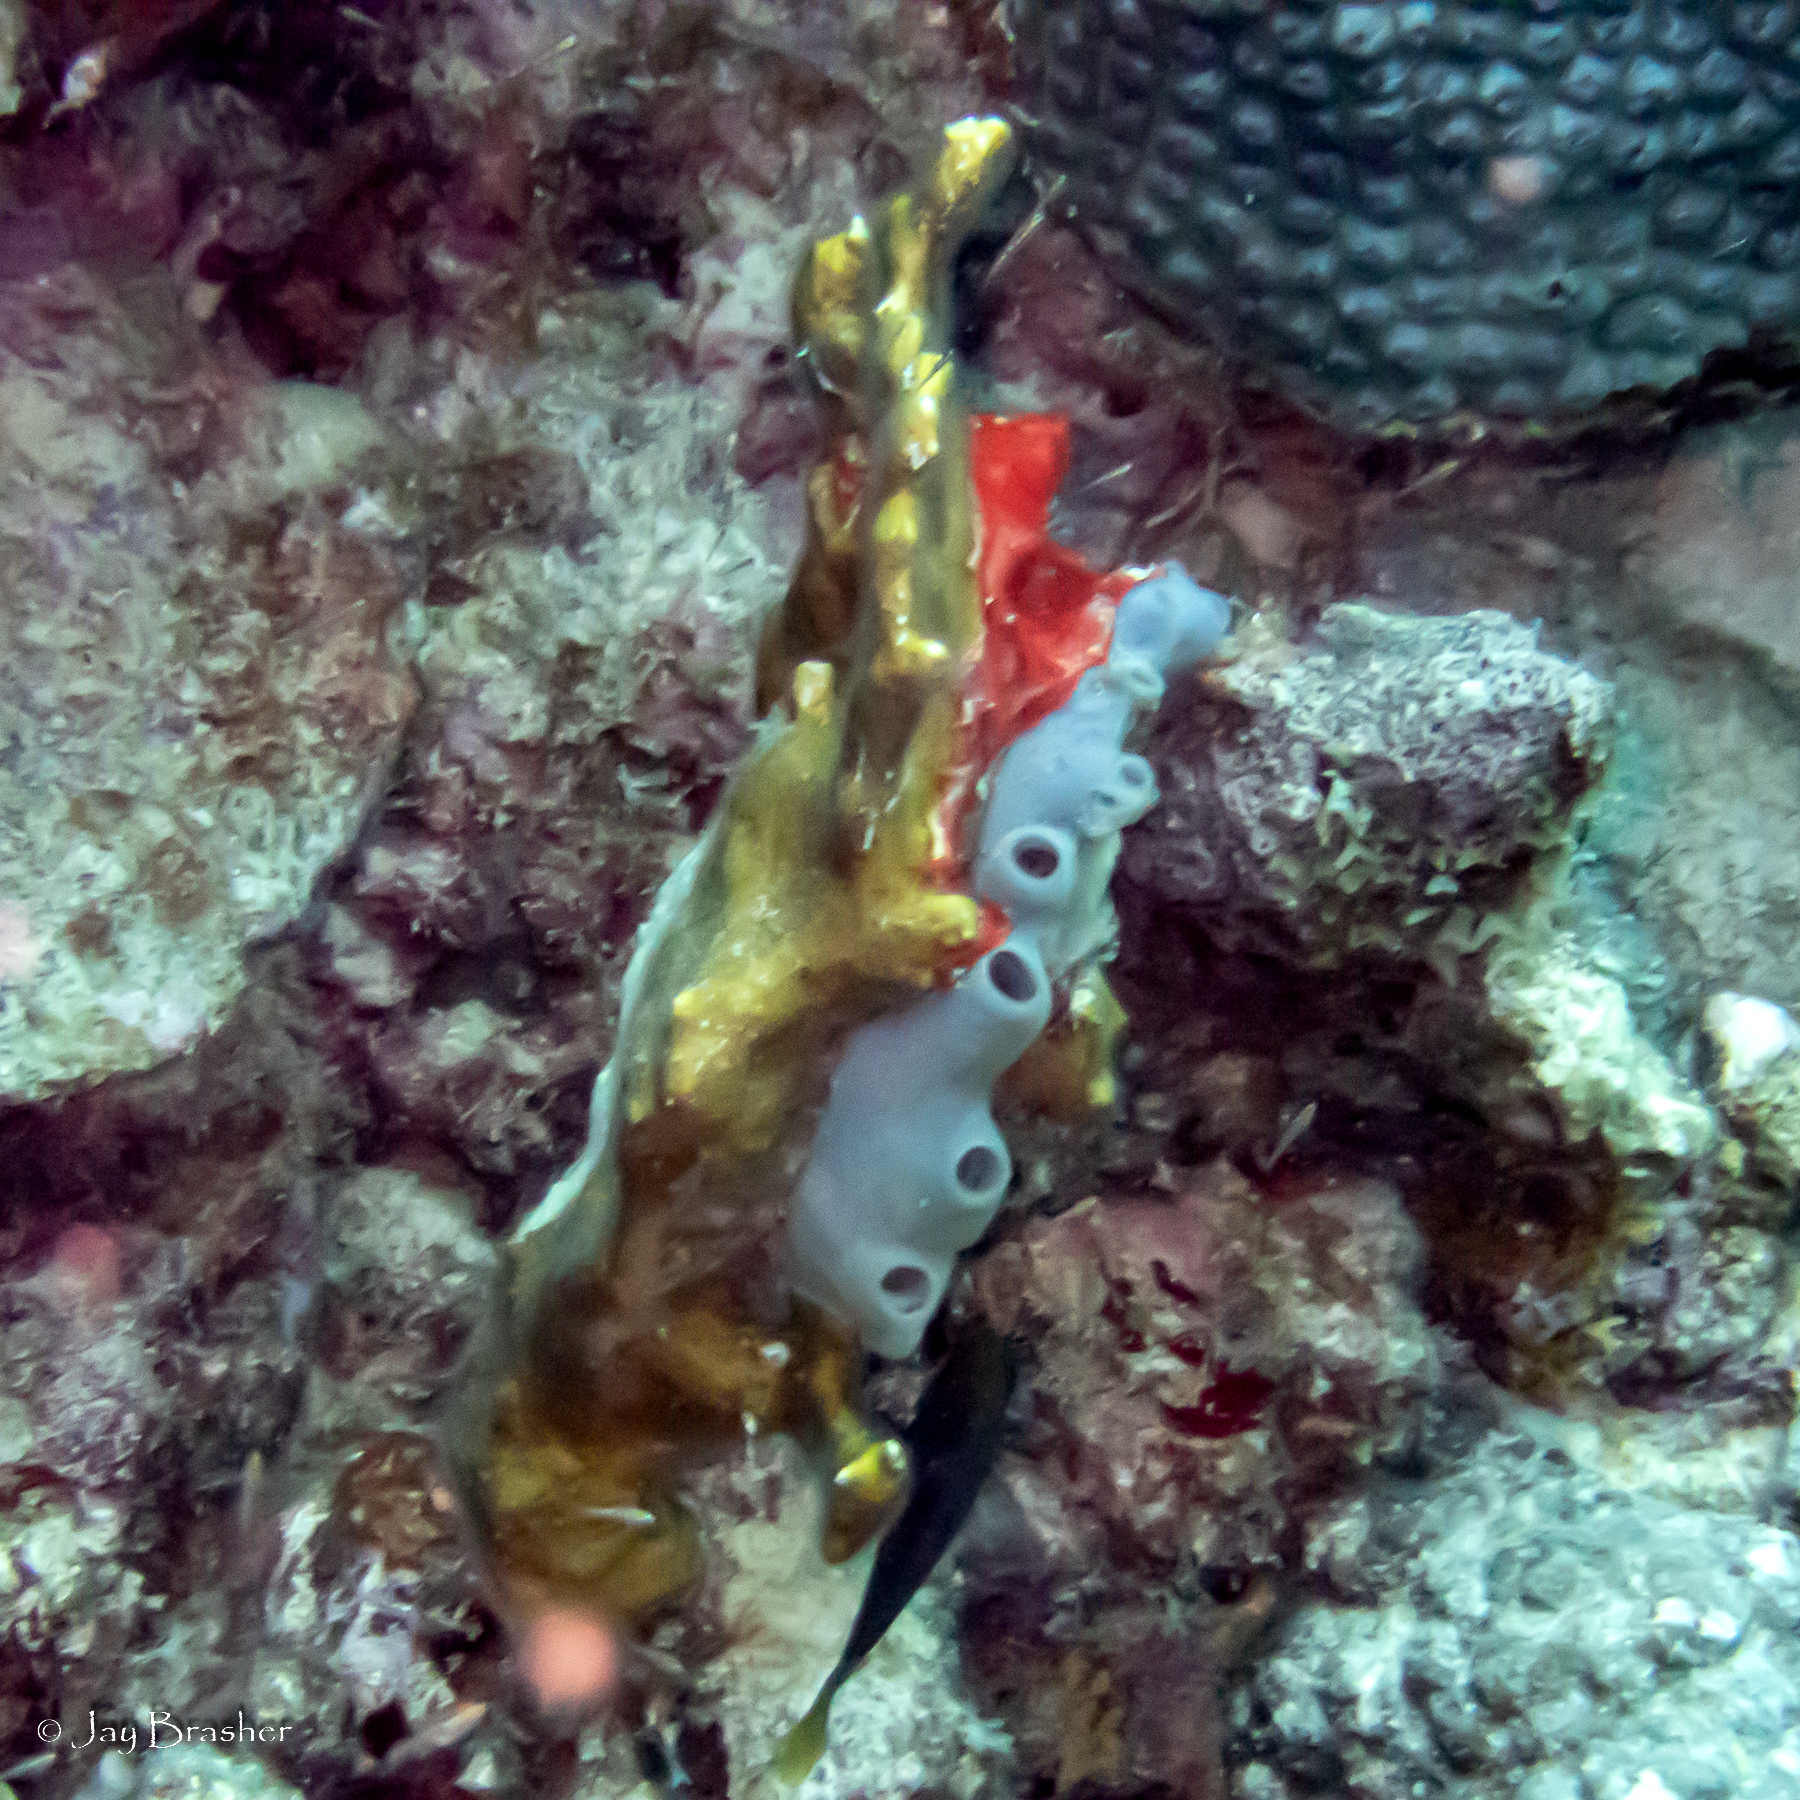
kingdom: Animalia
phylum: Porifera
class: Demospongiae
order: Haplosclerida
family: Callyspongiidae
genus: Callyspongia
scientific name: Callyspongia fallax
